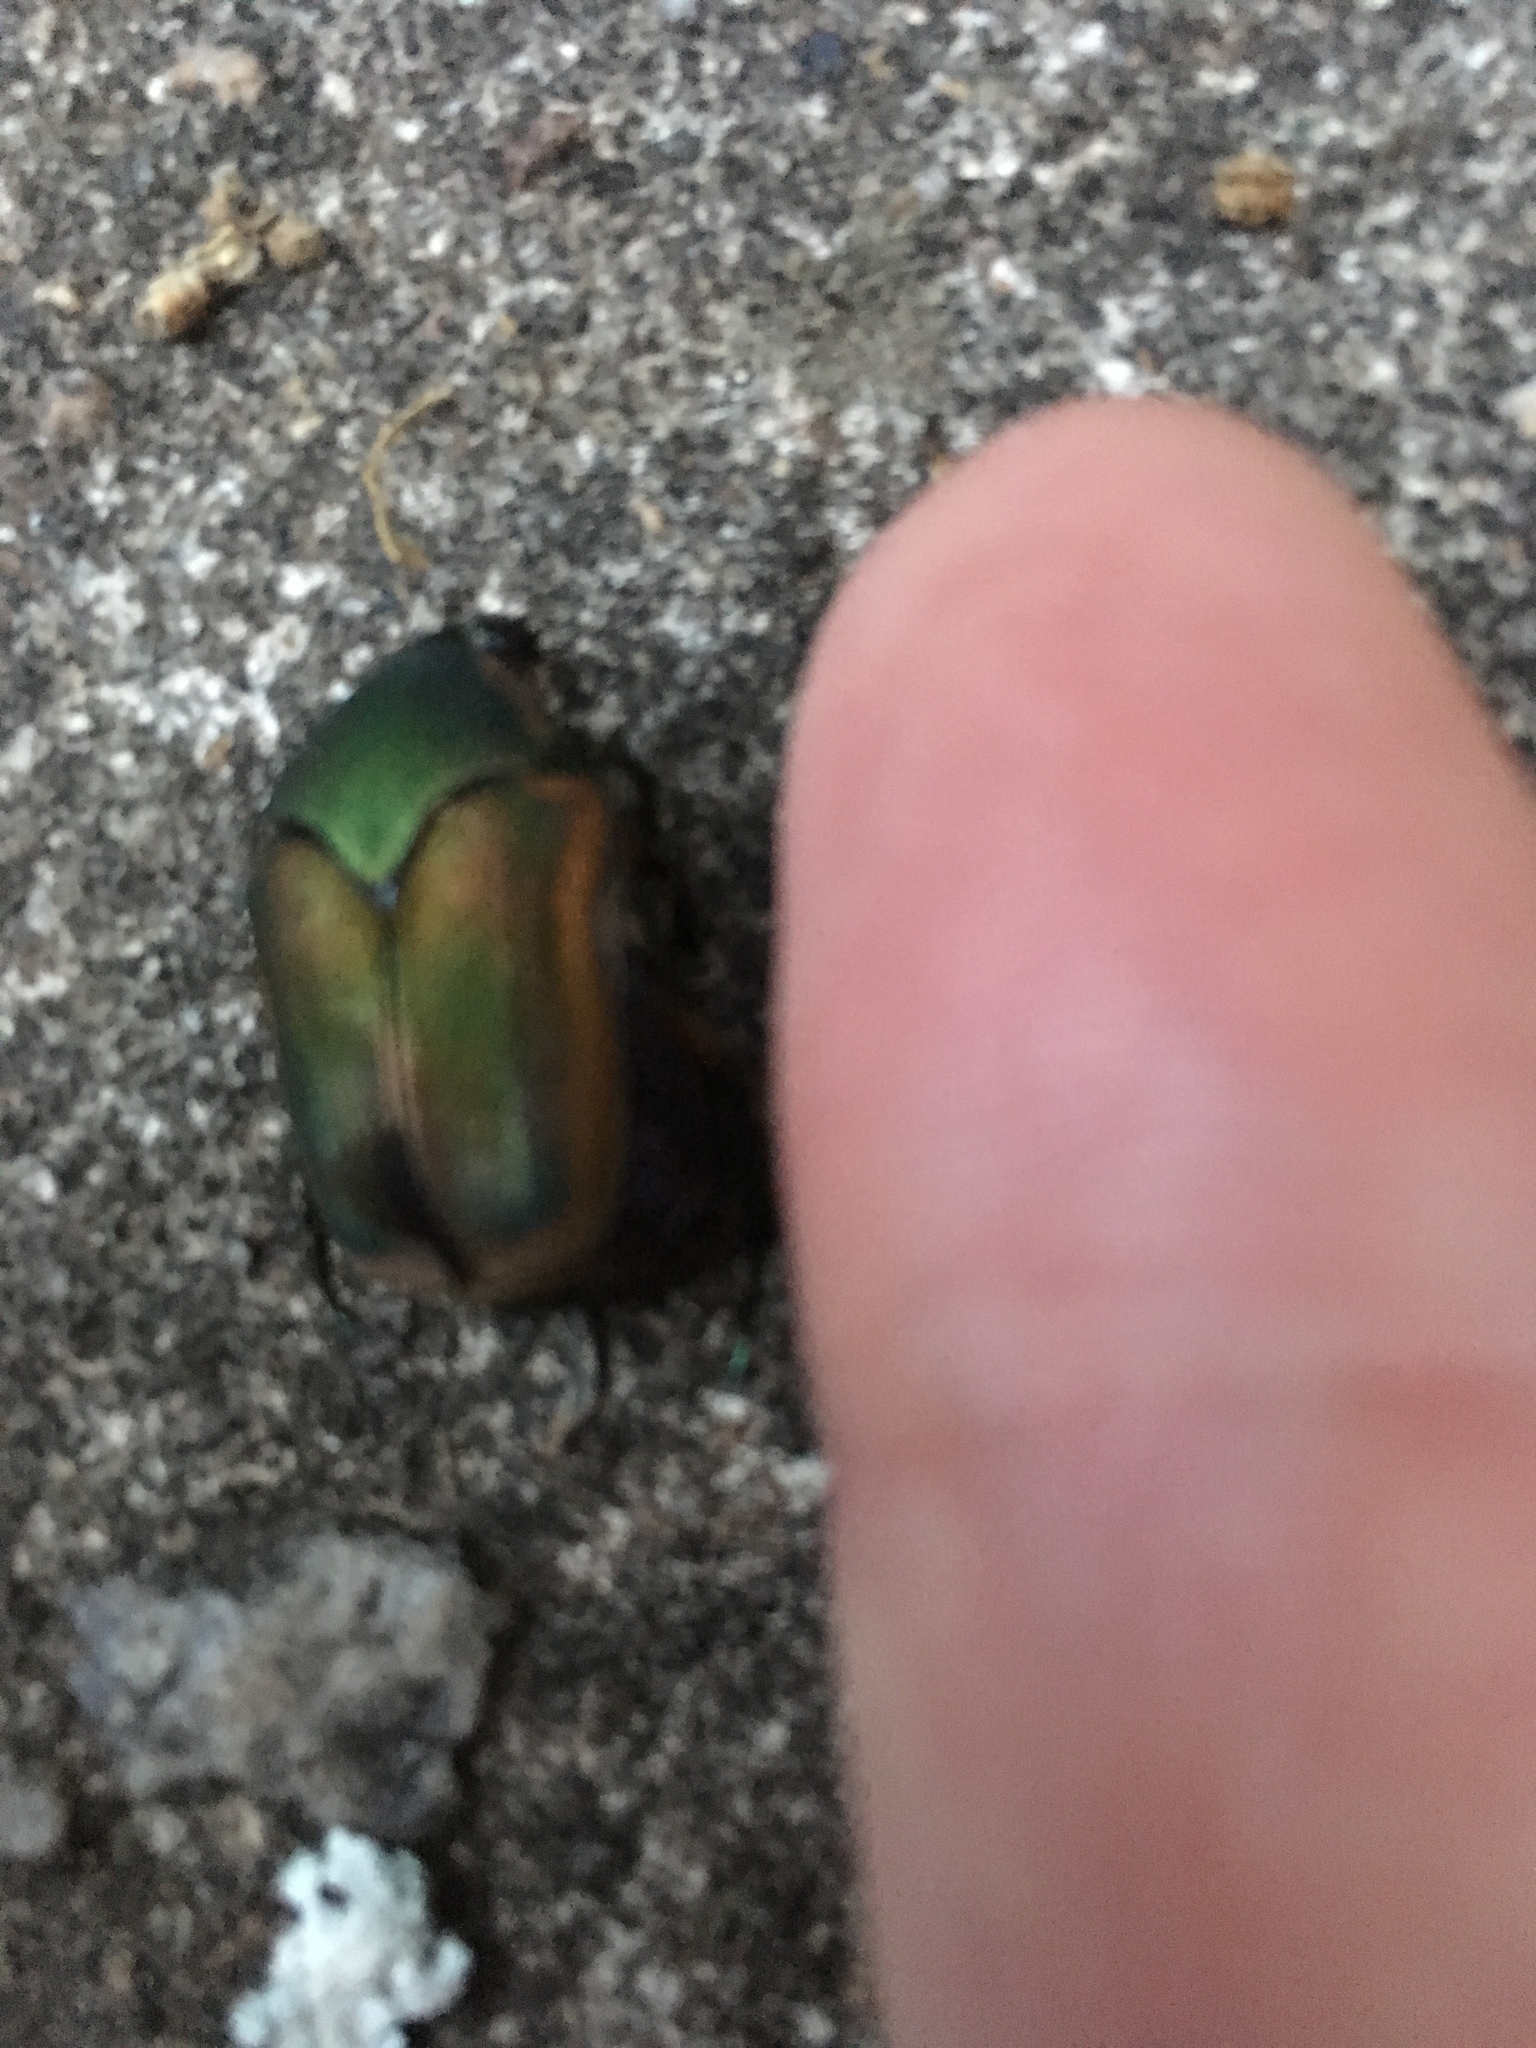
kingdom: Animalia
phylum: Arthropoda
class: Insecta
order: Coleoptera
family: Scarabaeidae
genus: Cotinis
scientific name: Cotinis nitida
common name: Common green june beetle
